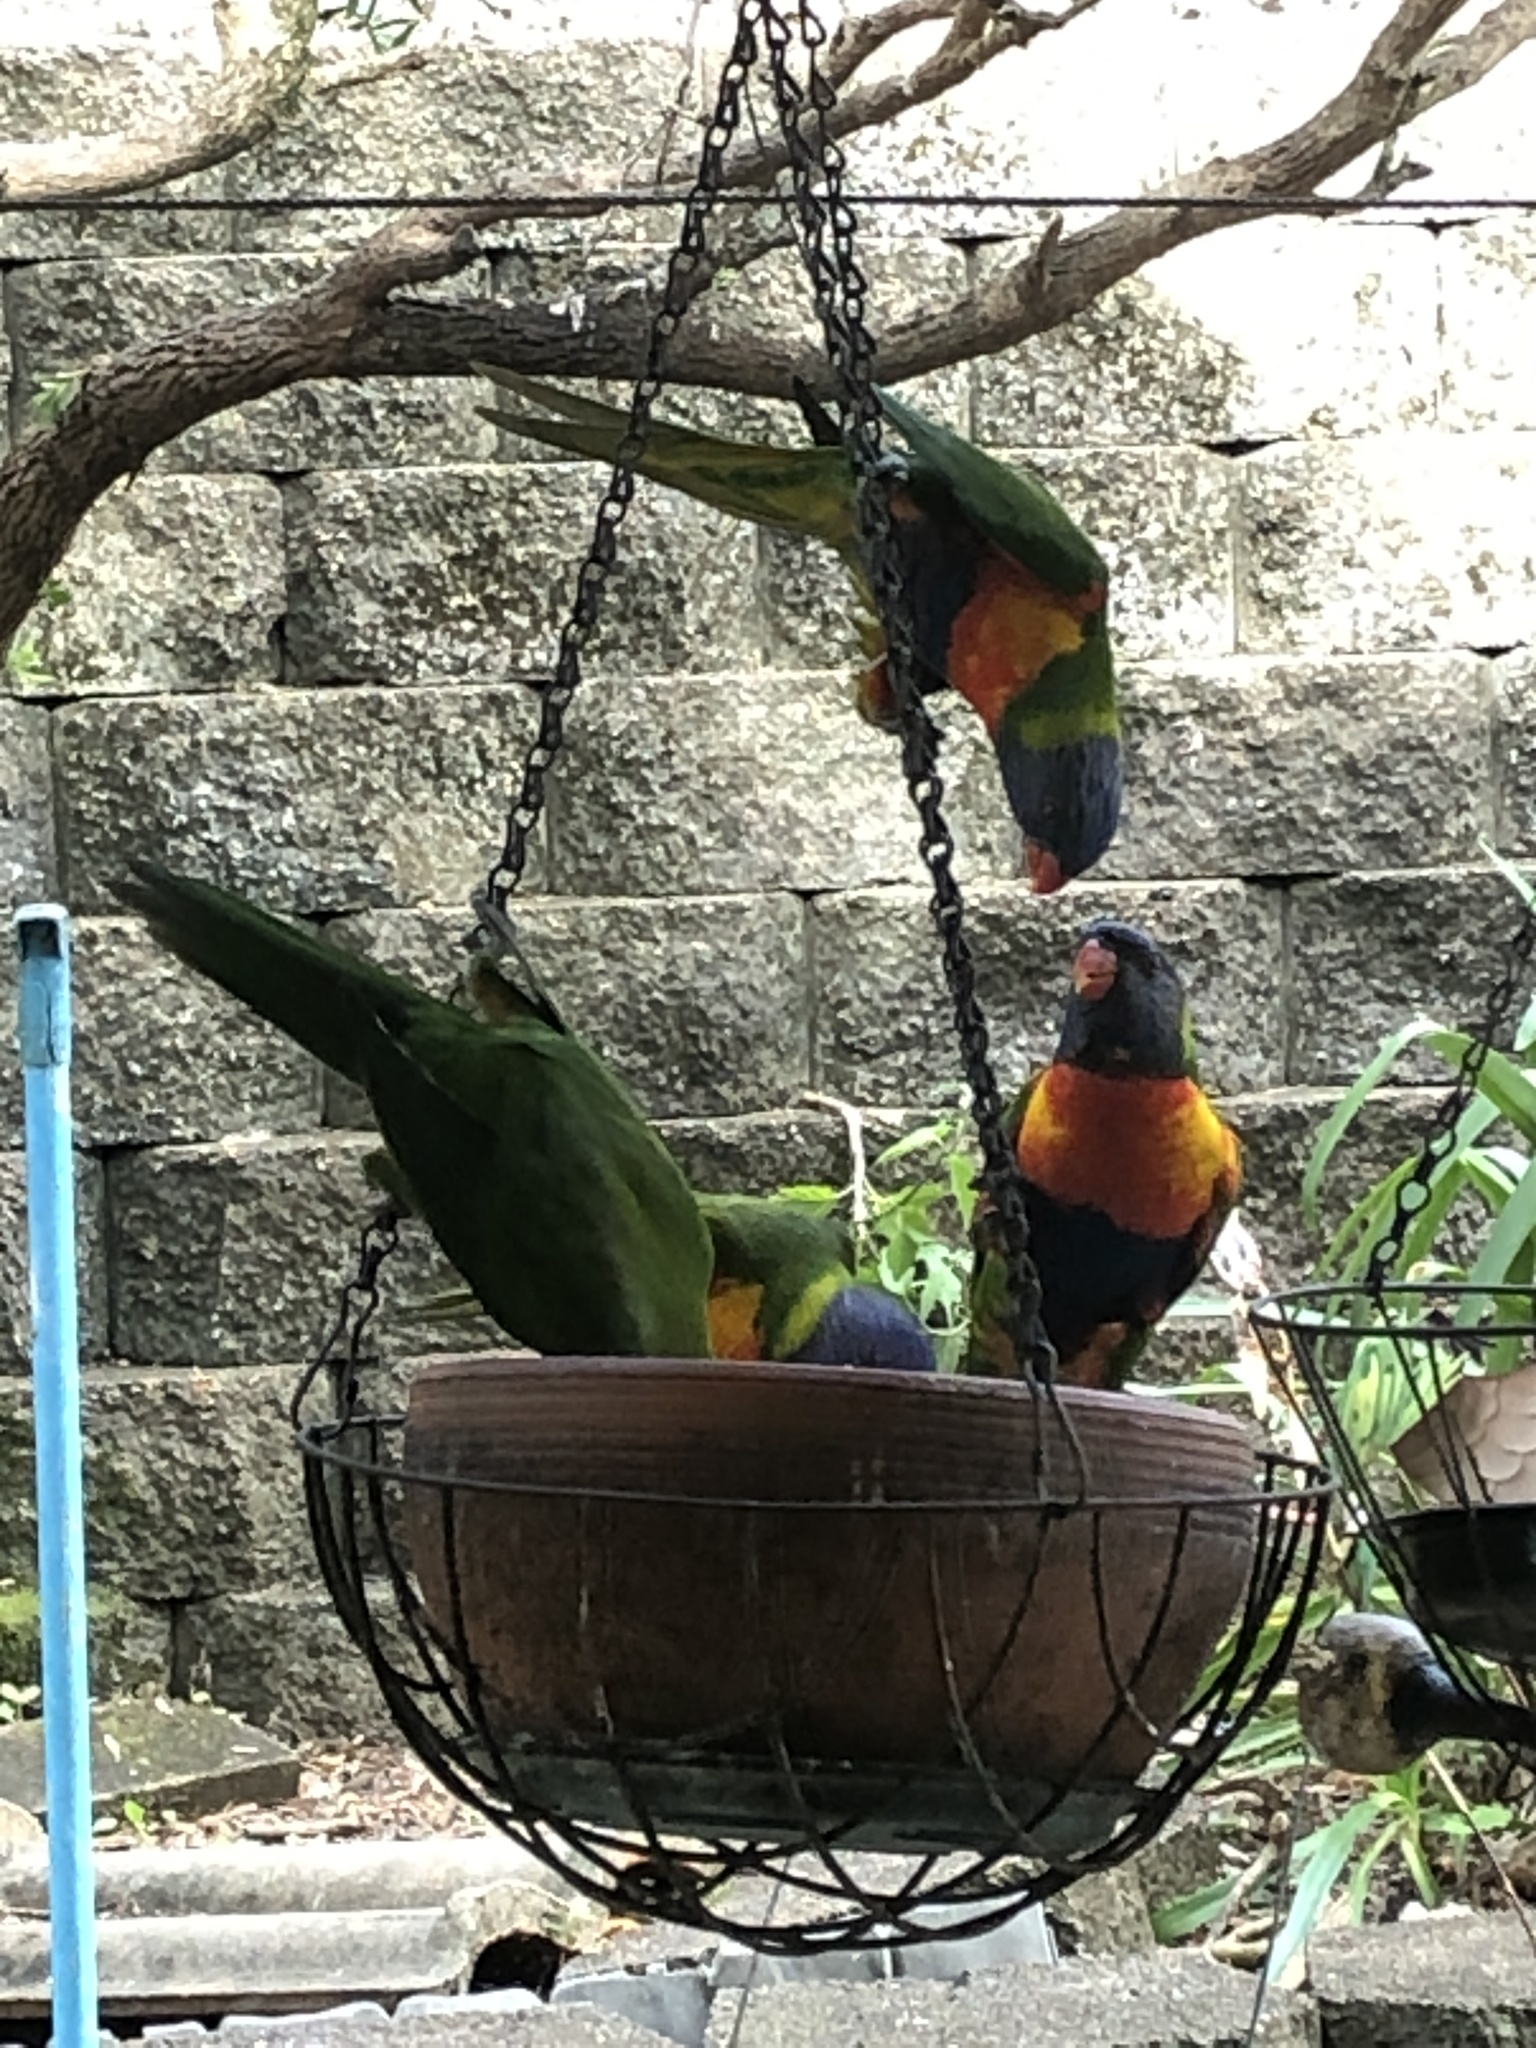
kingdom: Animalia
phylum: Chordata
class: Aves
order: Psittaciformes
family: Psittacidae
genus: Trichoglossus
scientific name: Trichoglossus haematodus
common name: Coconut lorikeet
